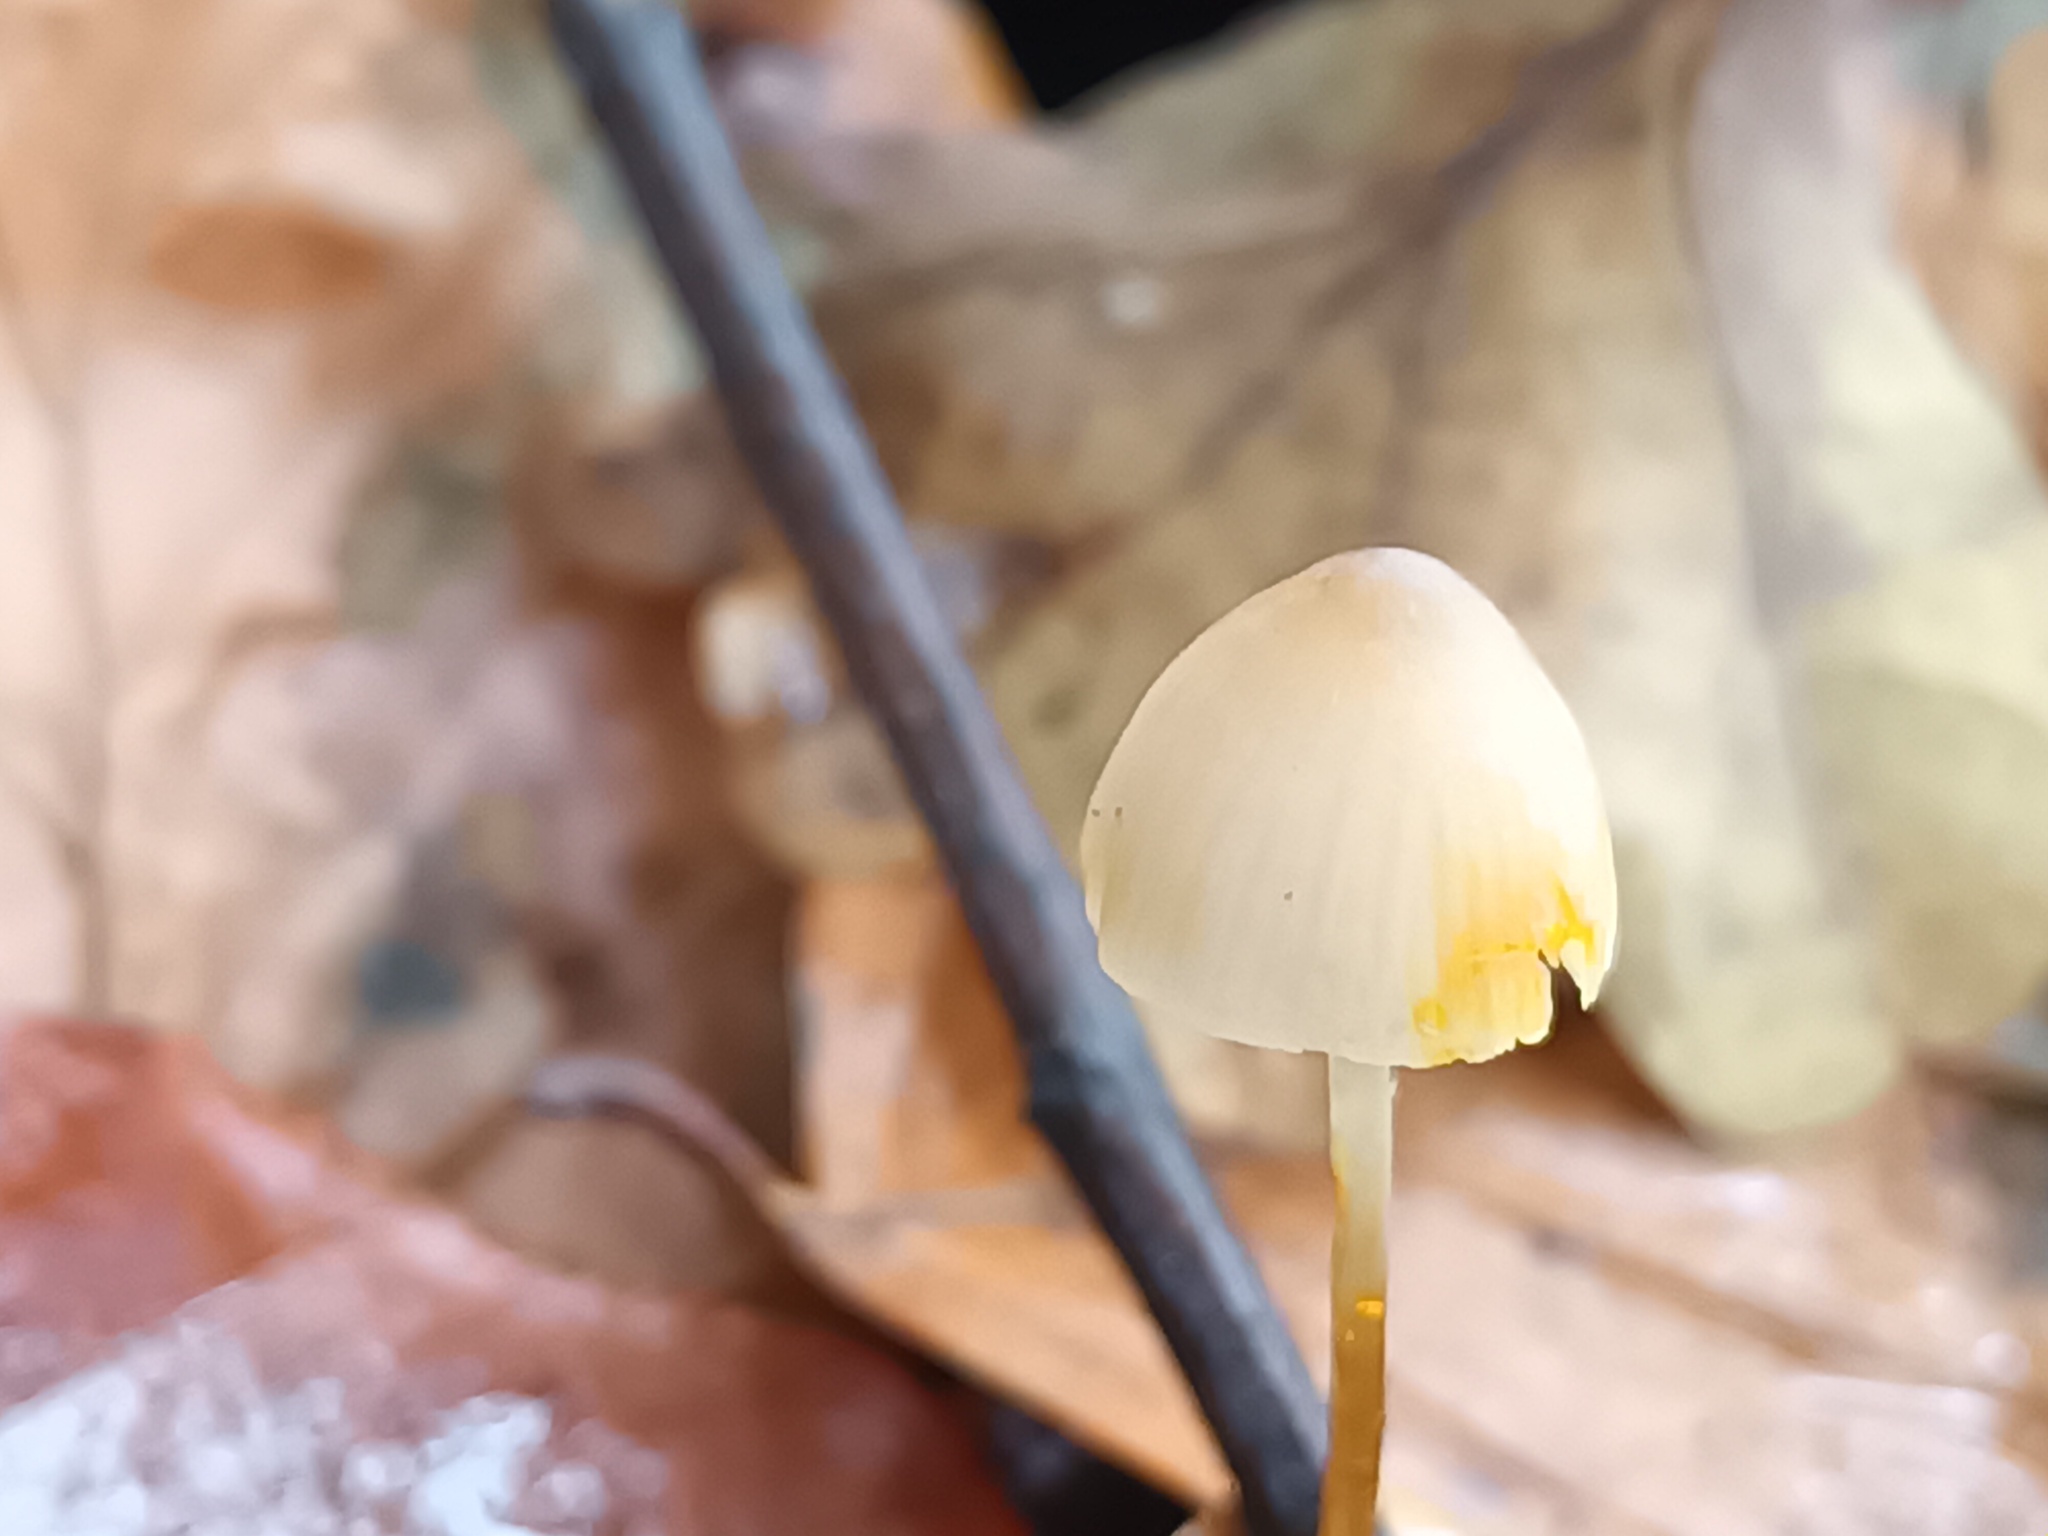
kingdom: Fungi
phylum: Basidiomycota
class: Agaricomycetes
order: Agaricales
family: Mycenaceae
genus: Mycena
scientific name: Mycena crocata
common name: Saffrondrop bonnet
